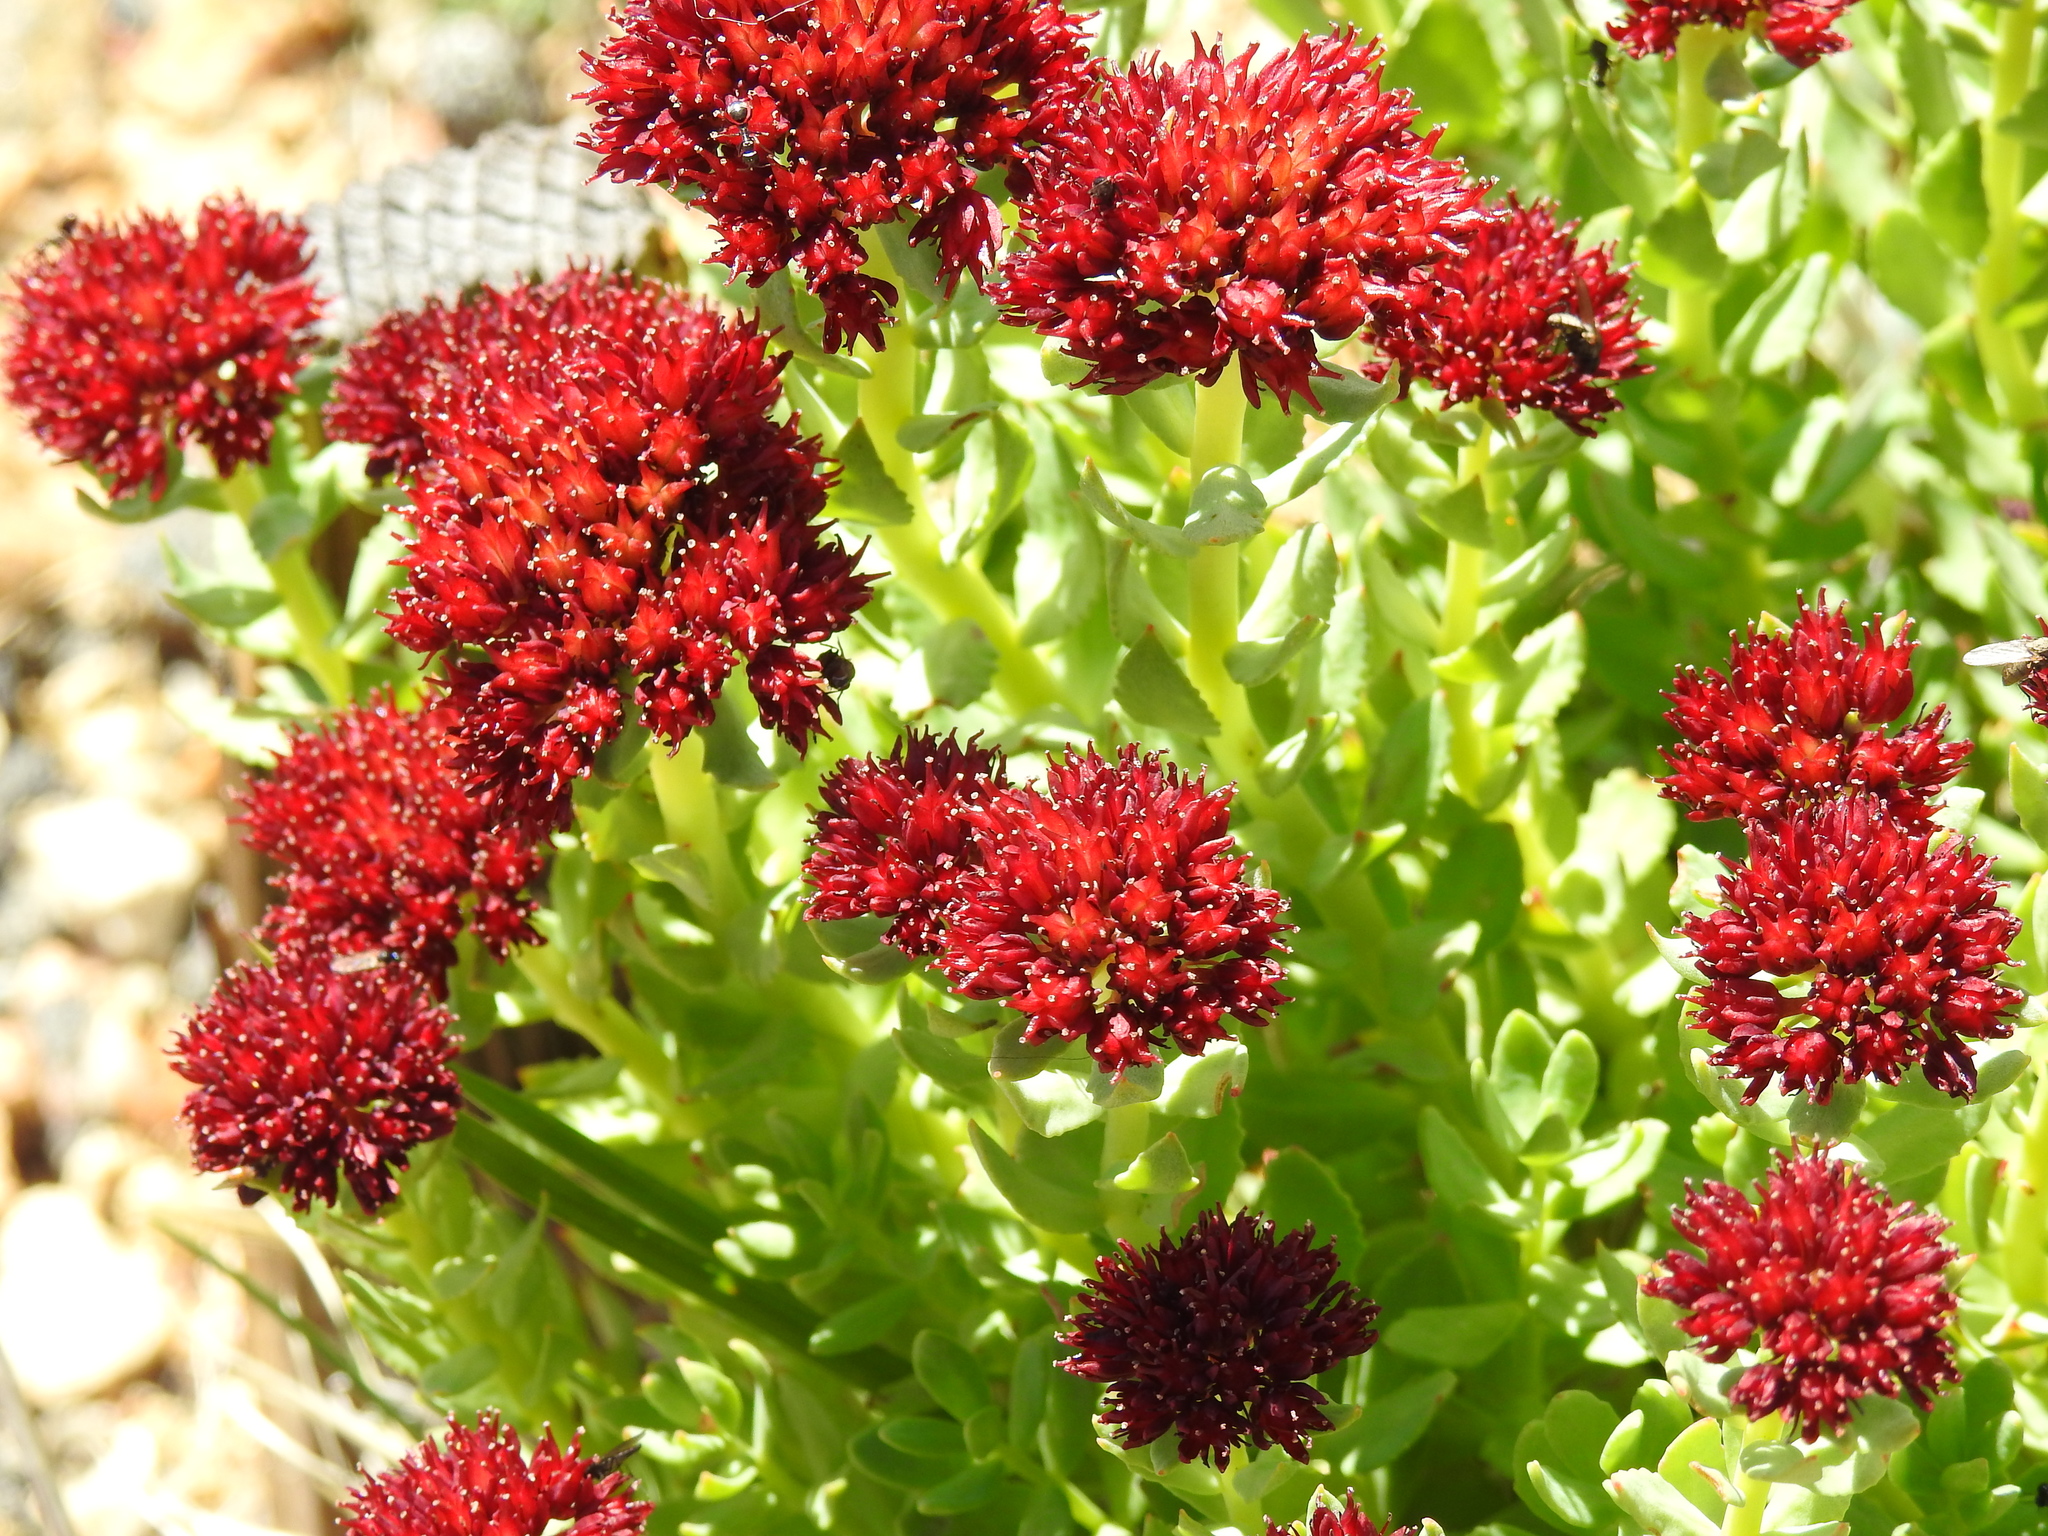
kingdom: Plantae
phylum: Tracheophyta
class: Magnoliopsida
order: Saxifragales
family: Crassulaceae
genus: Rhodiola
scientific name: Rhodiola integrifolia
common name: Western roseroot
